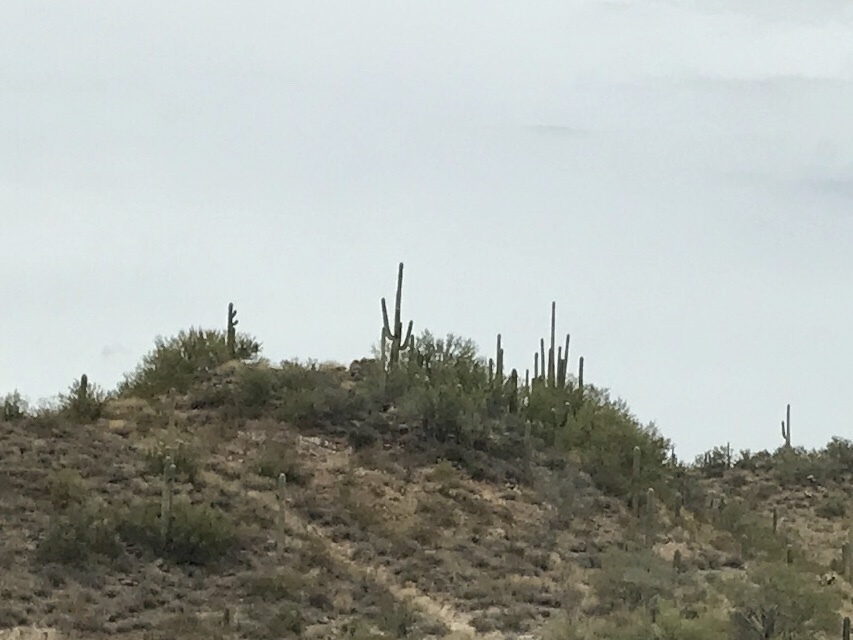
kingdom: Plantae
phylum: Tracheophyta
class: Magnoliopsida
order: Caryophyllales
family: Cactaceae
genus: Carnegiea
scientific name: Carnegiea gigantea
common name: Saguaro
